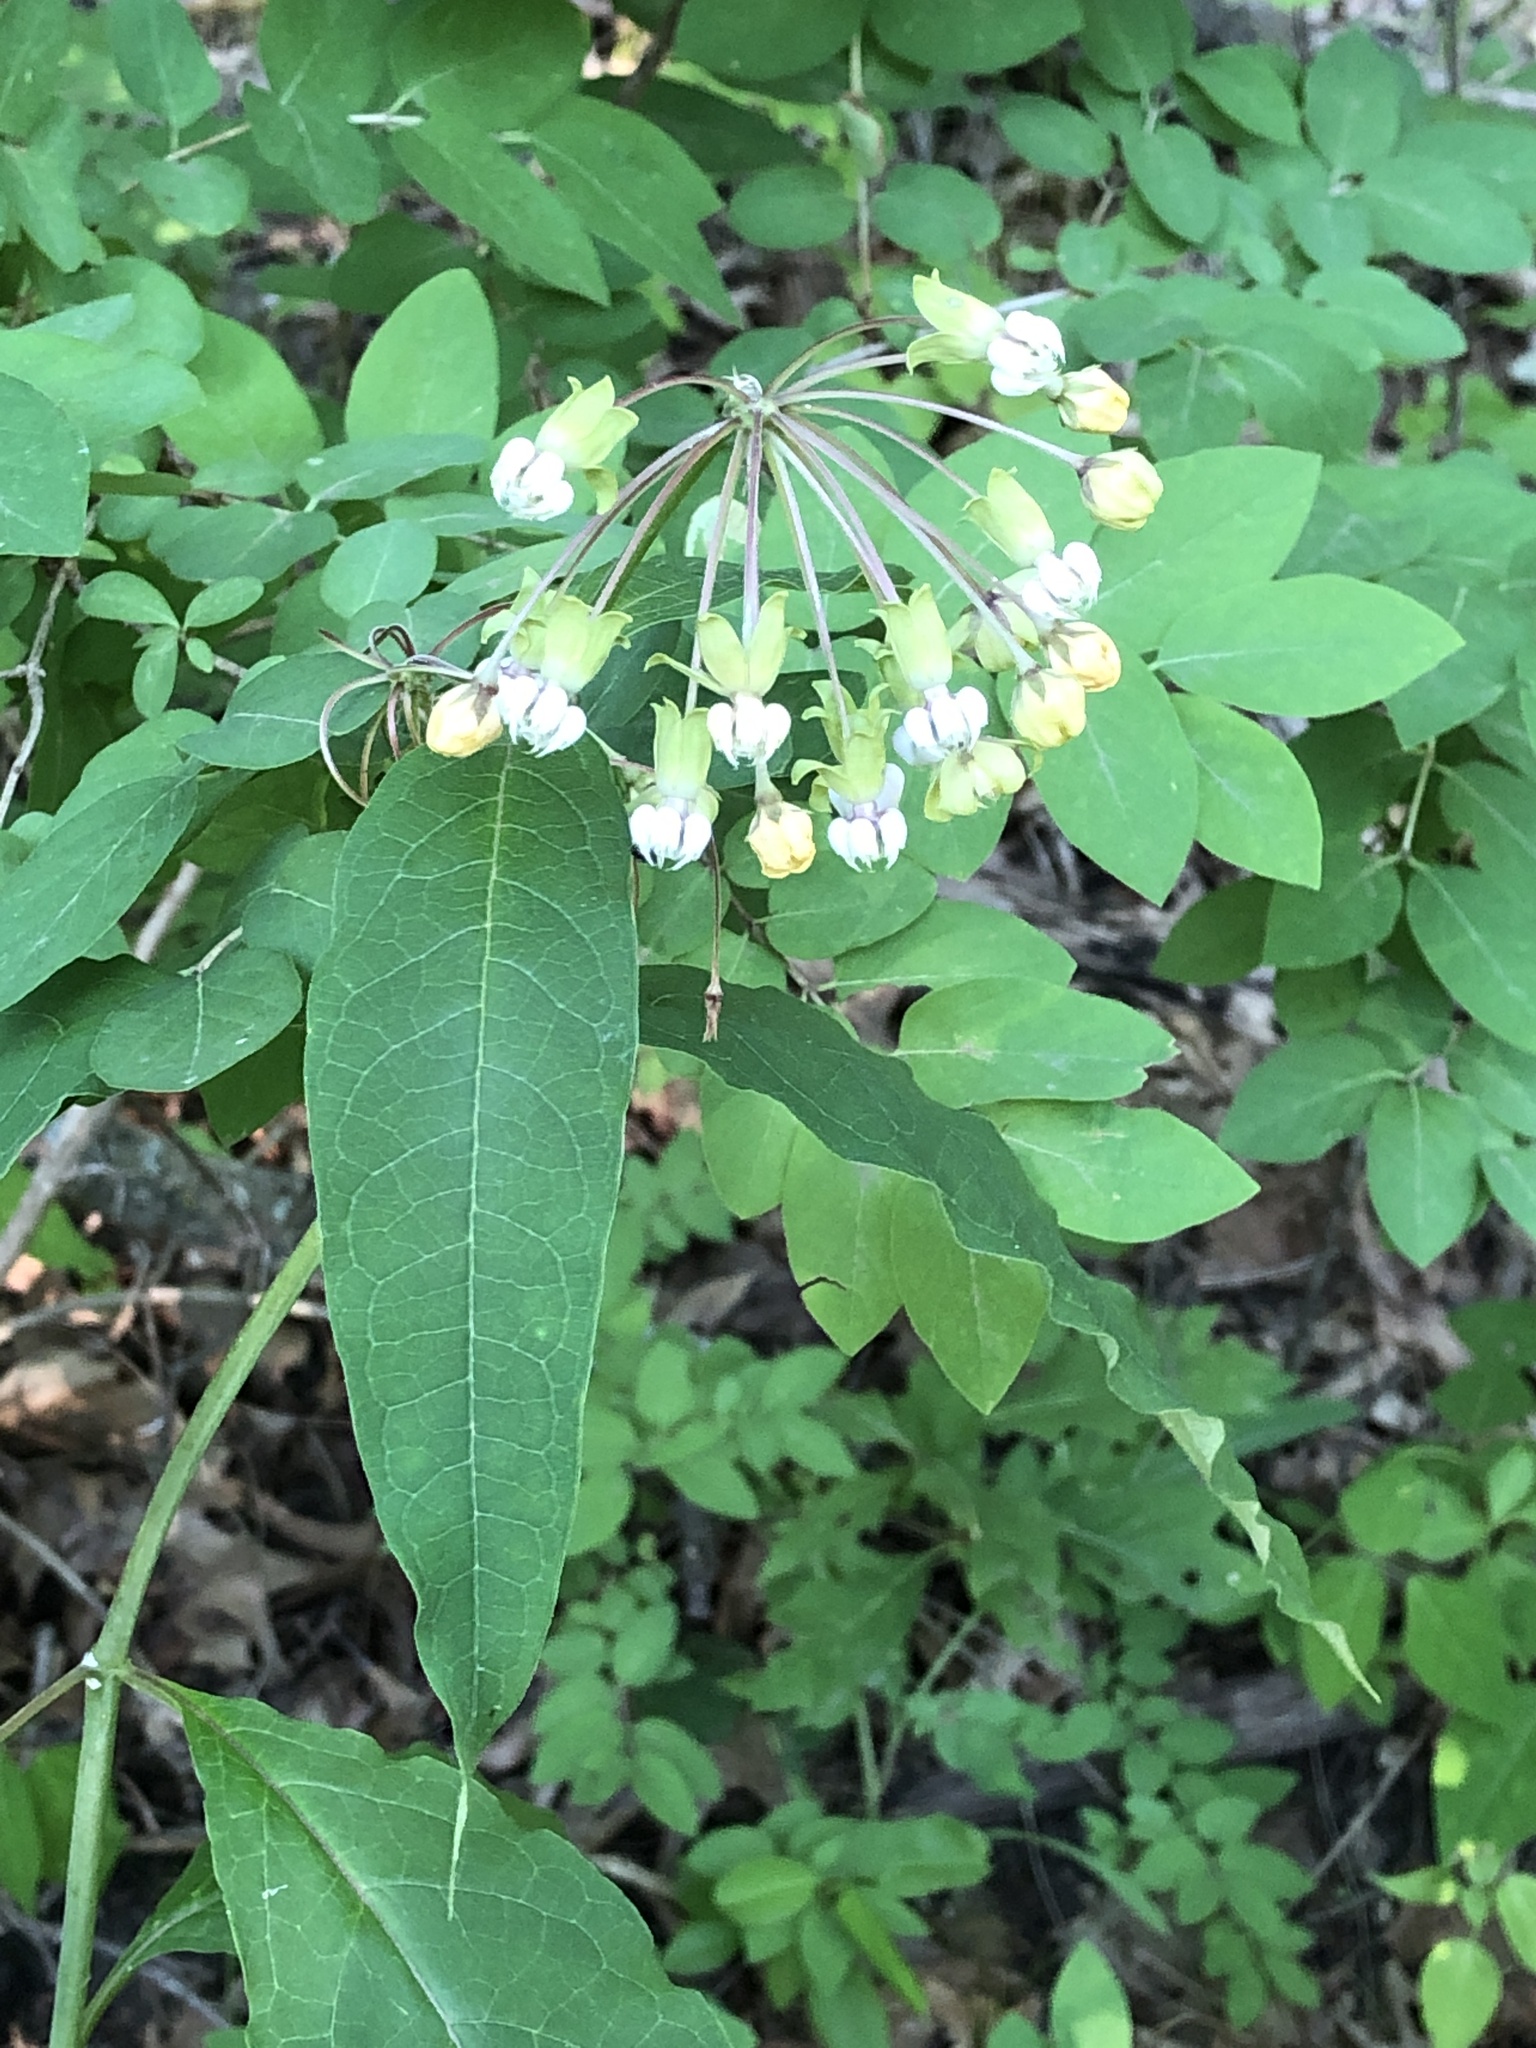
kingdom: Plantae
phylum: Tracheophyta
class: Magnoliopsida
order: Gentianales
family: Apocynaceae
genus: Asclepias
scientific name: Asclepias exaltata
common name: Poke milkweed
